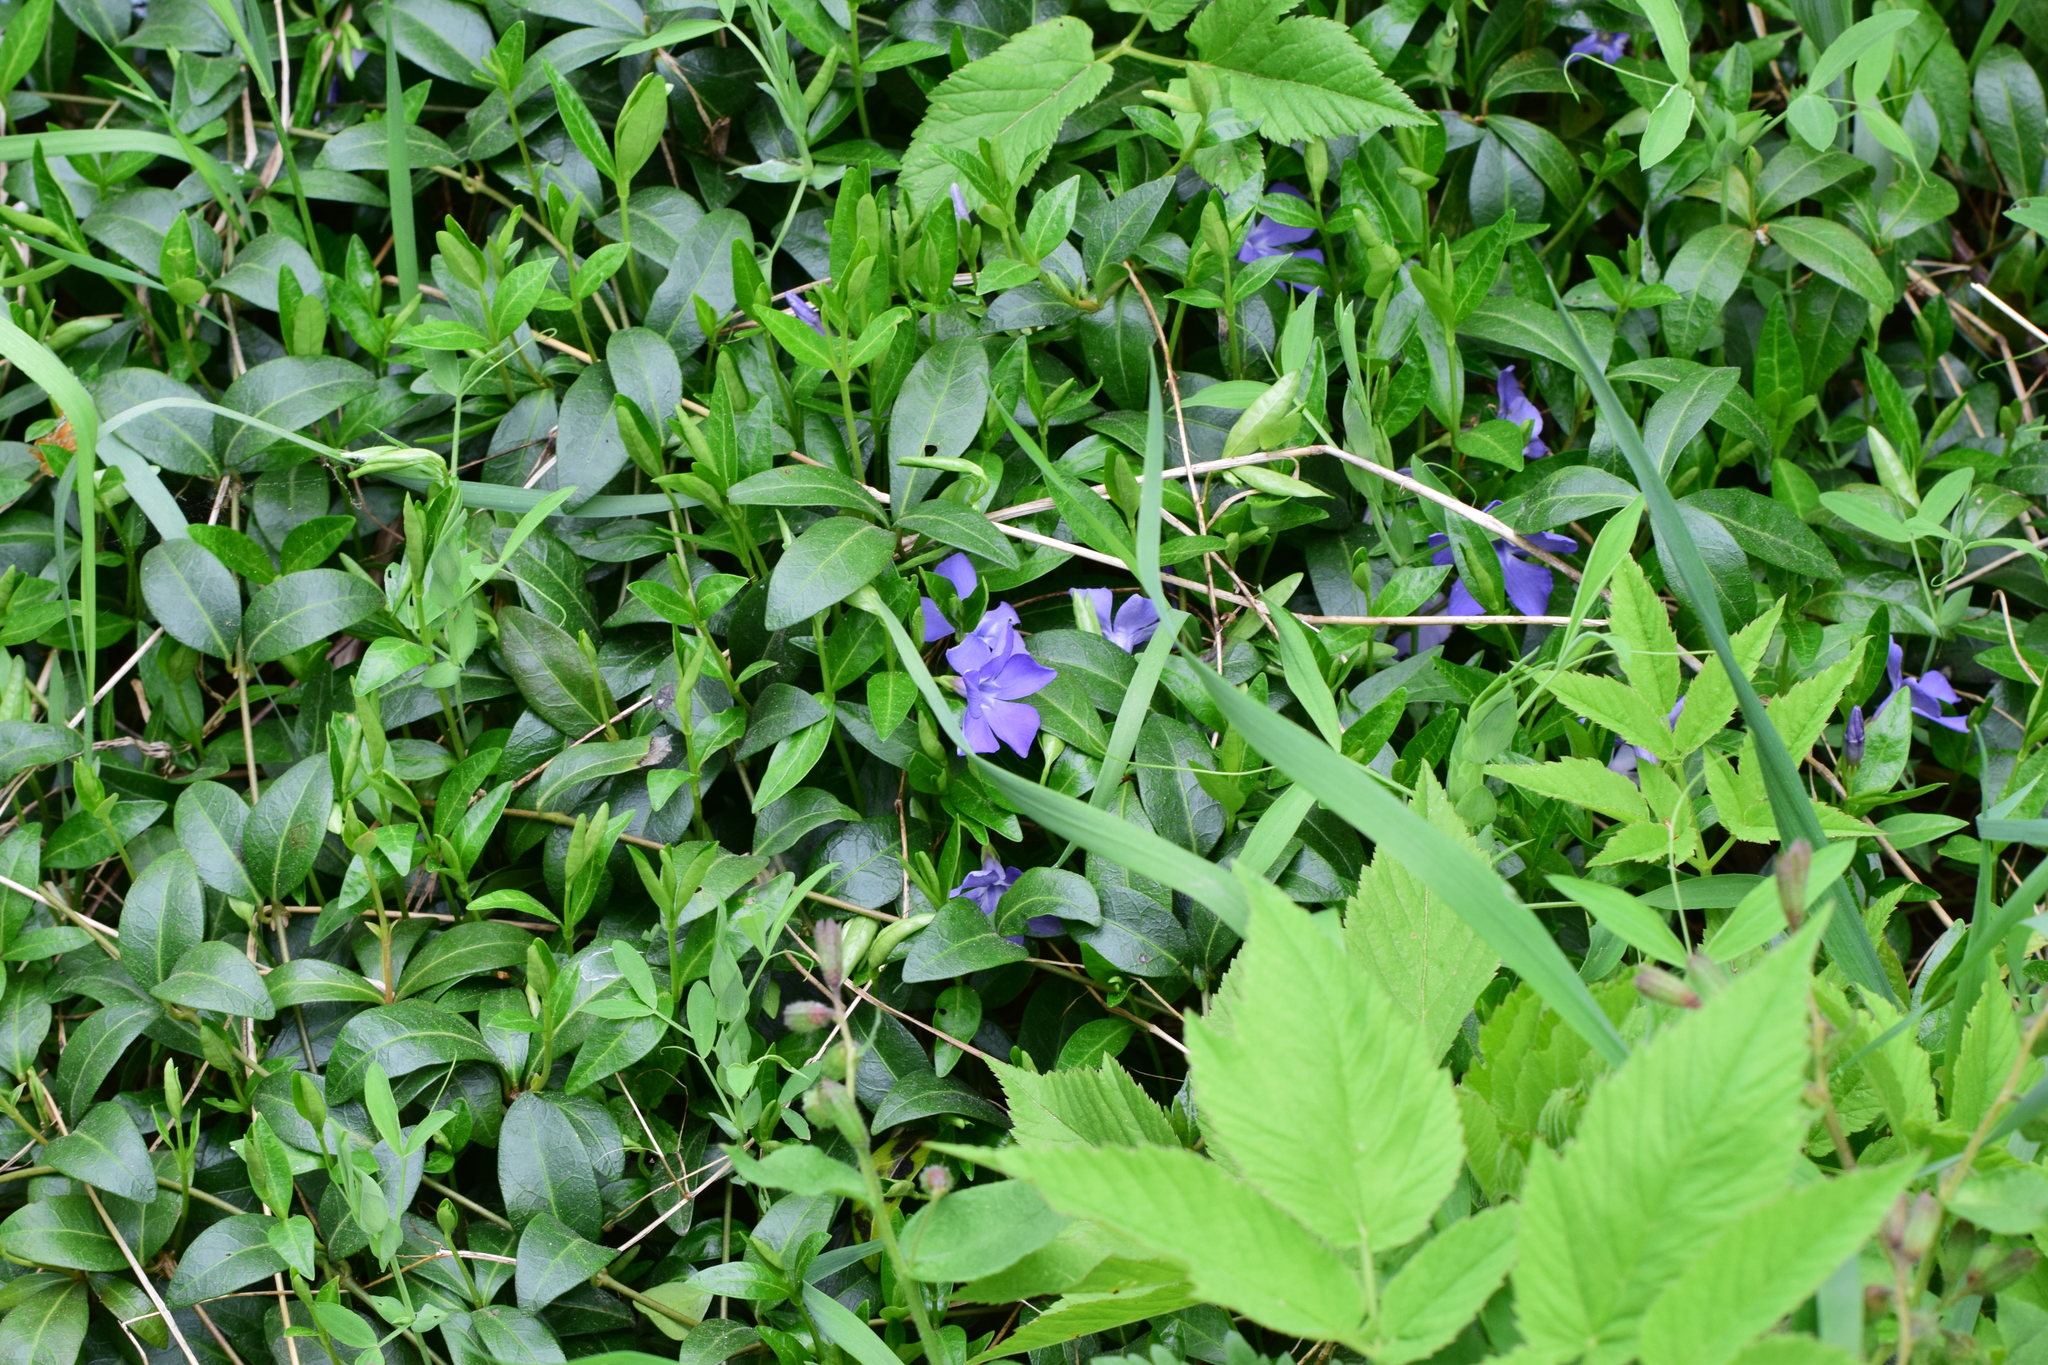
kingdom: Plantae
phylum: Tracheophyta
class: Magnoliopsida
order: Gentianales
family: Apocynaceae
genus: Vinca
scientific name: Vinca minor
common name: Lesser periwinkle
